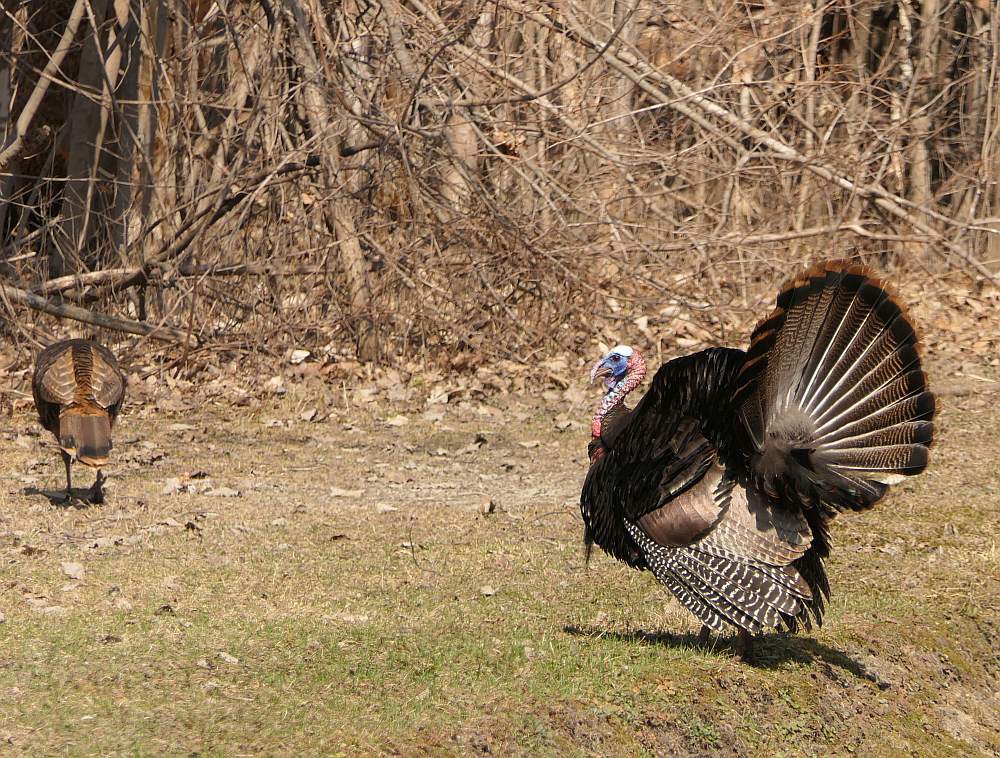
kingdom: Animalia
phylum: Chordata
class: Aves
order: Galliformes
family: Phasianidae
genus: Meleagris
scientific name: Meleagris gallopavo
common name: Wild turkey
